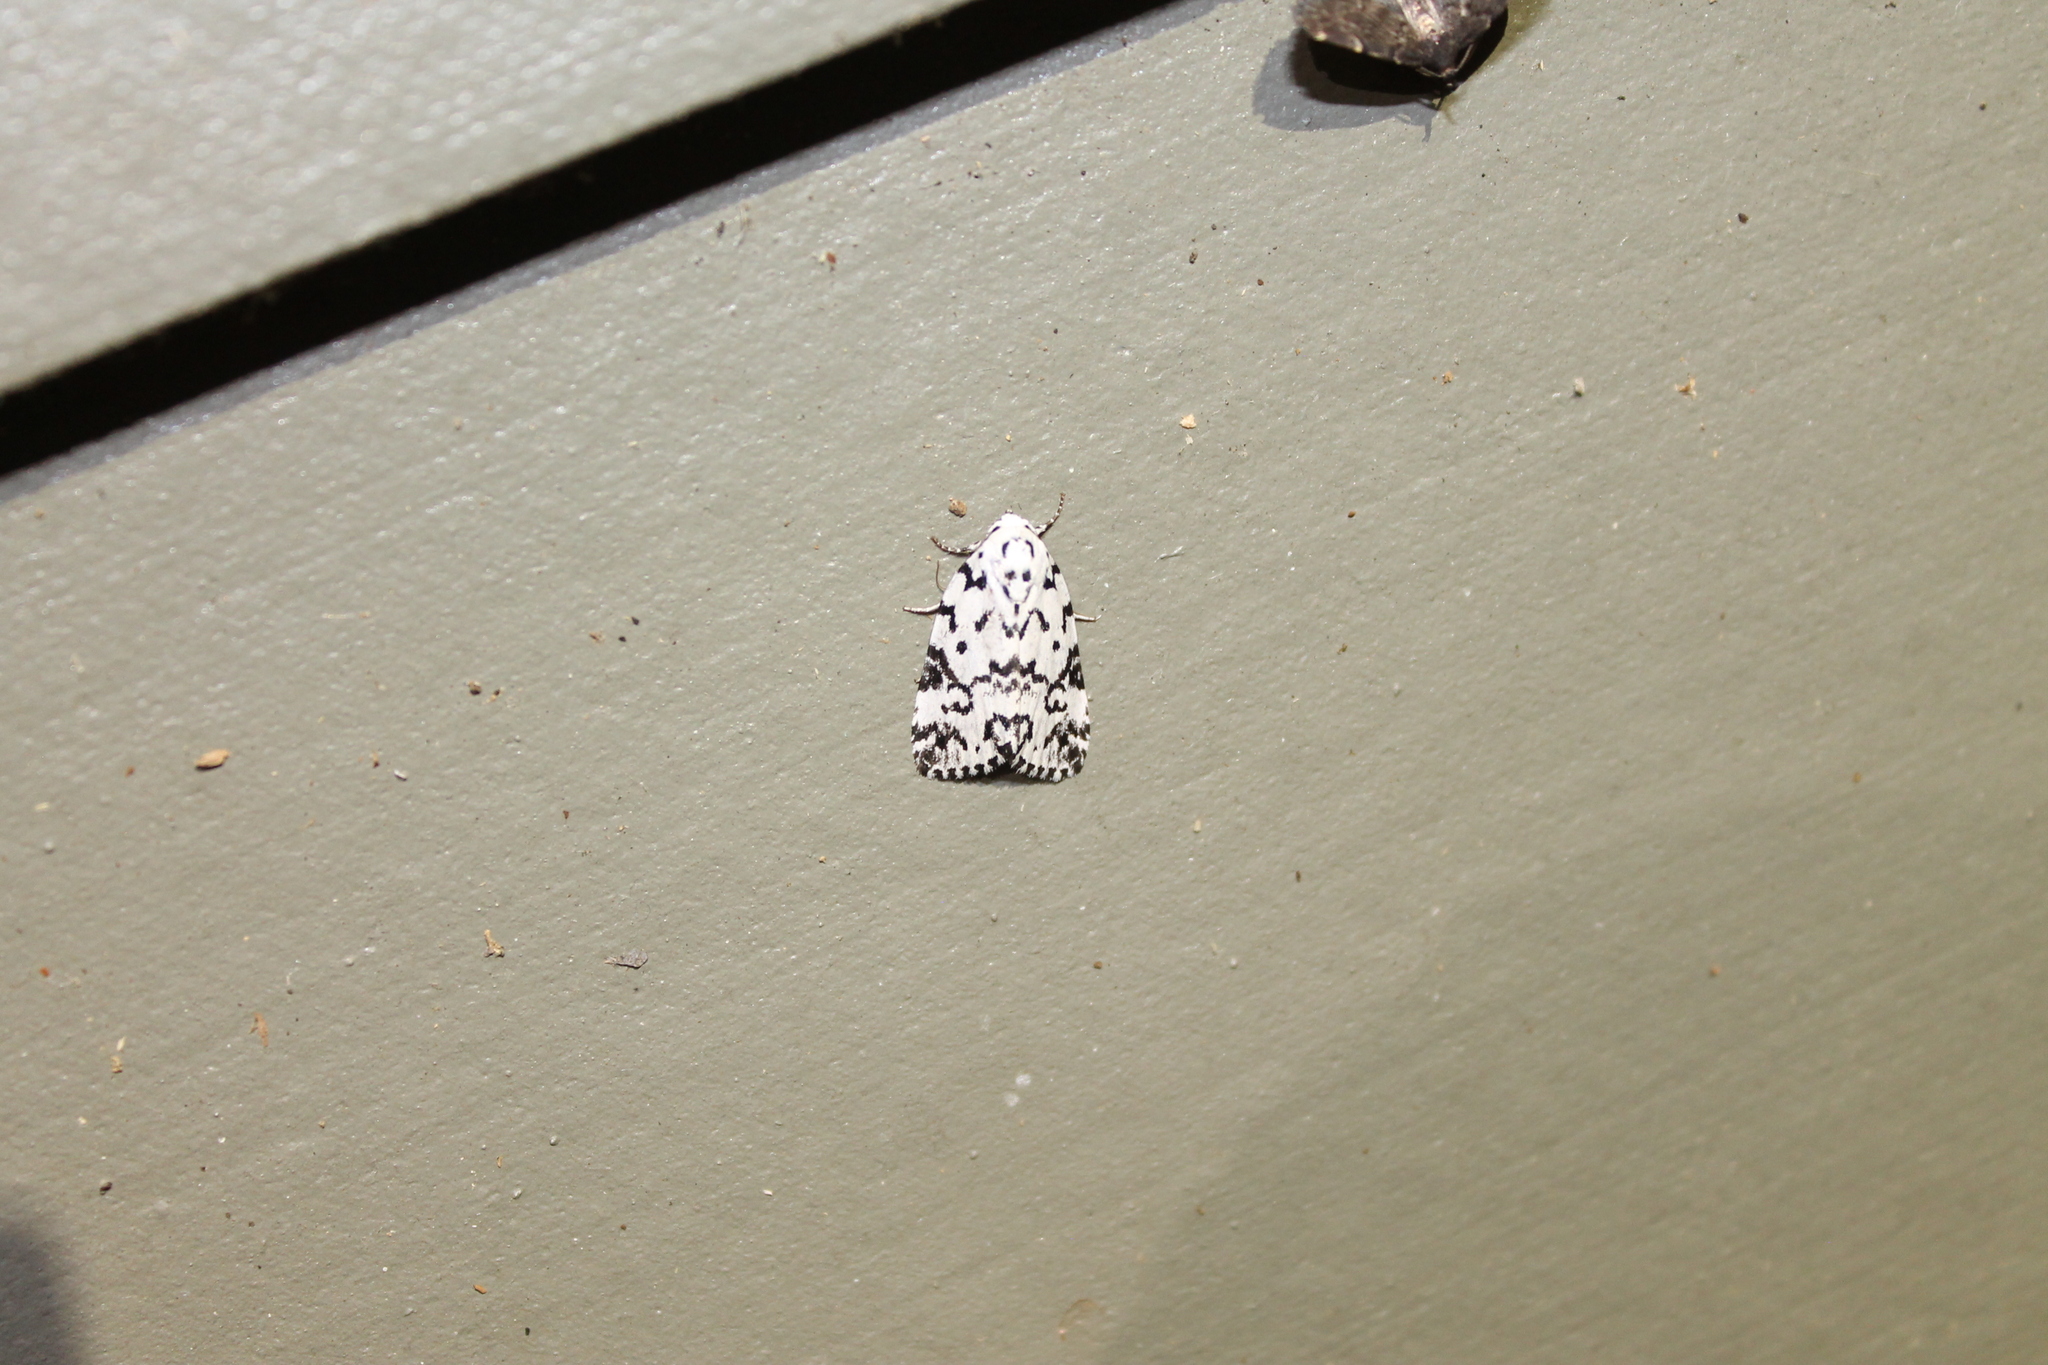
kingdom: Animalia
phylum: Arthropoda
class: Insecta
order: Lepidoptera
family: Noctuidae
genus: Polygrammate
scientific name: Polygrammate hebraeicum
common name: Hebrew moth
